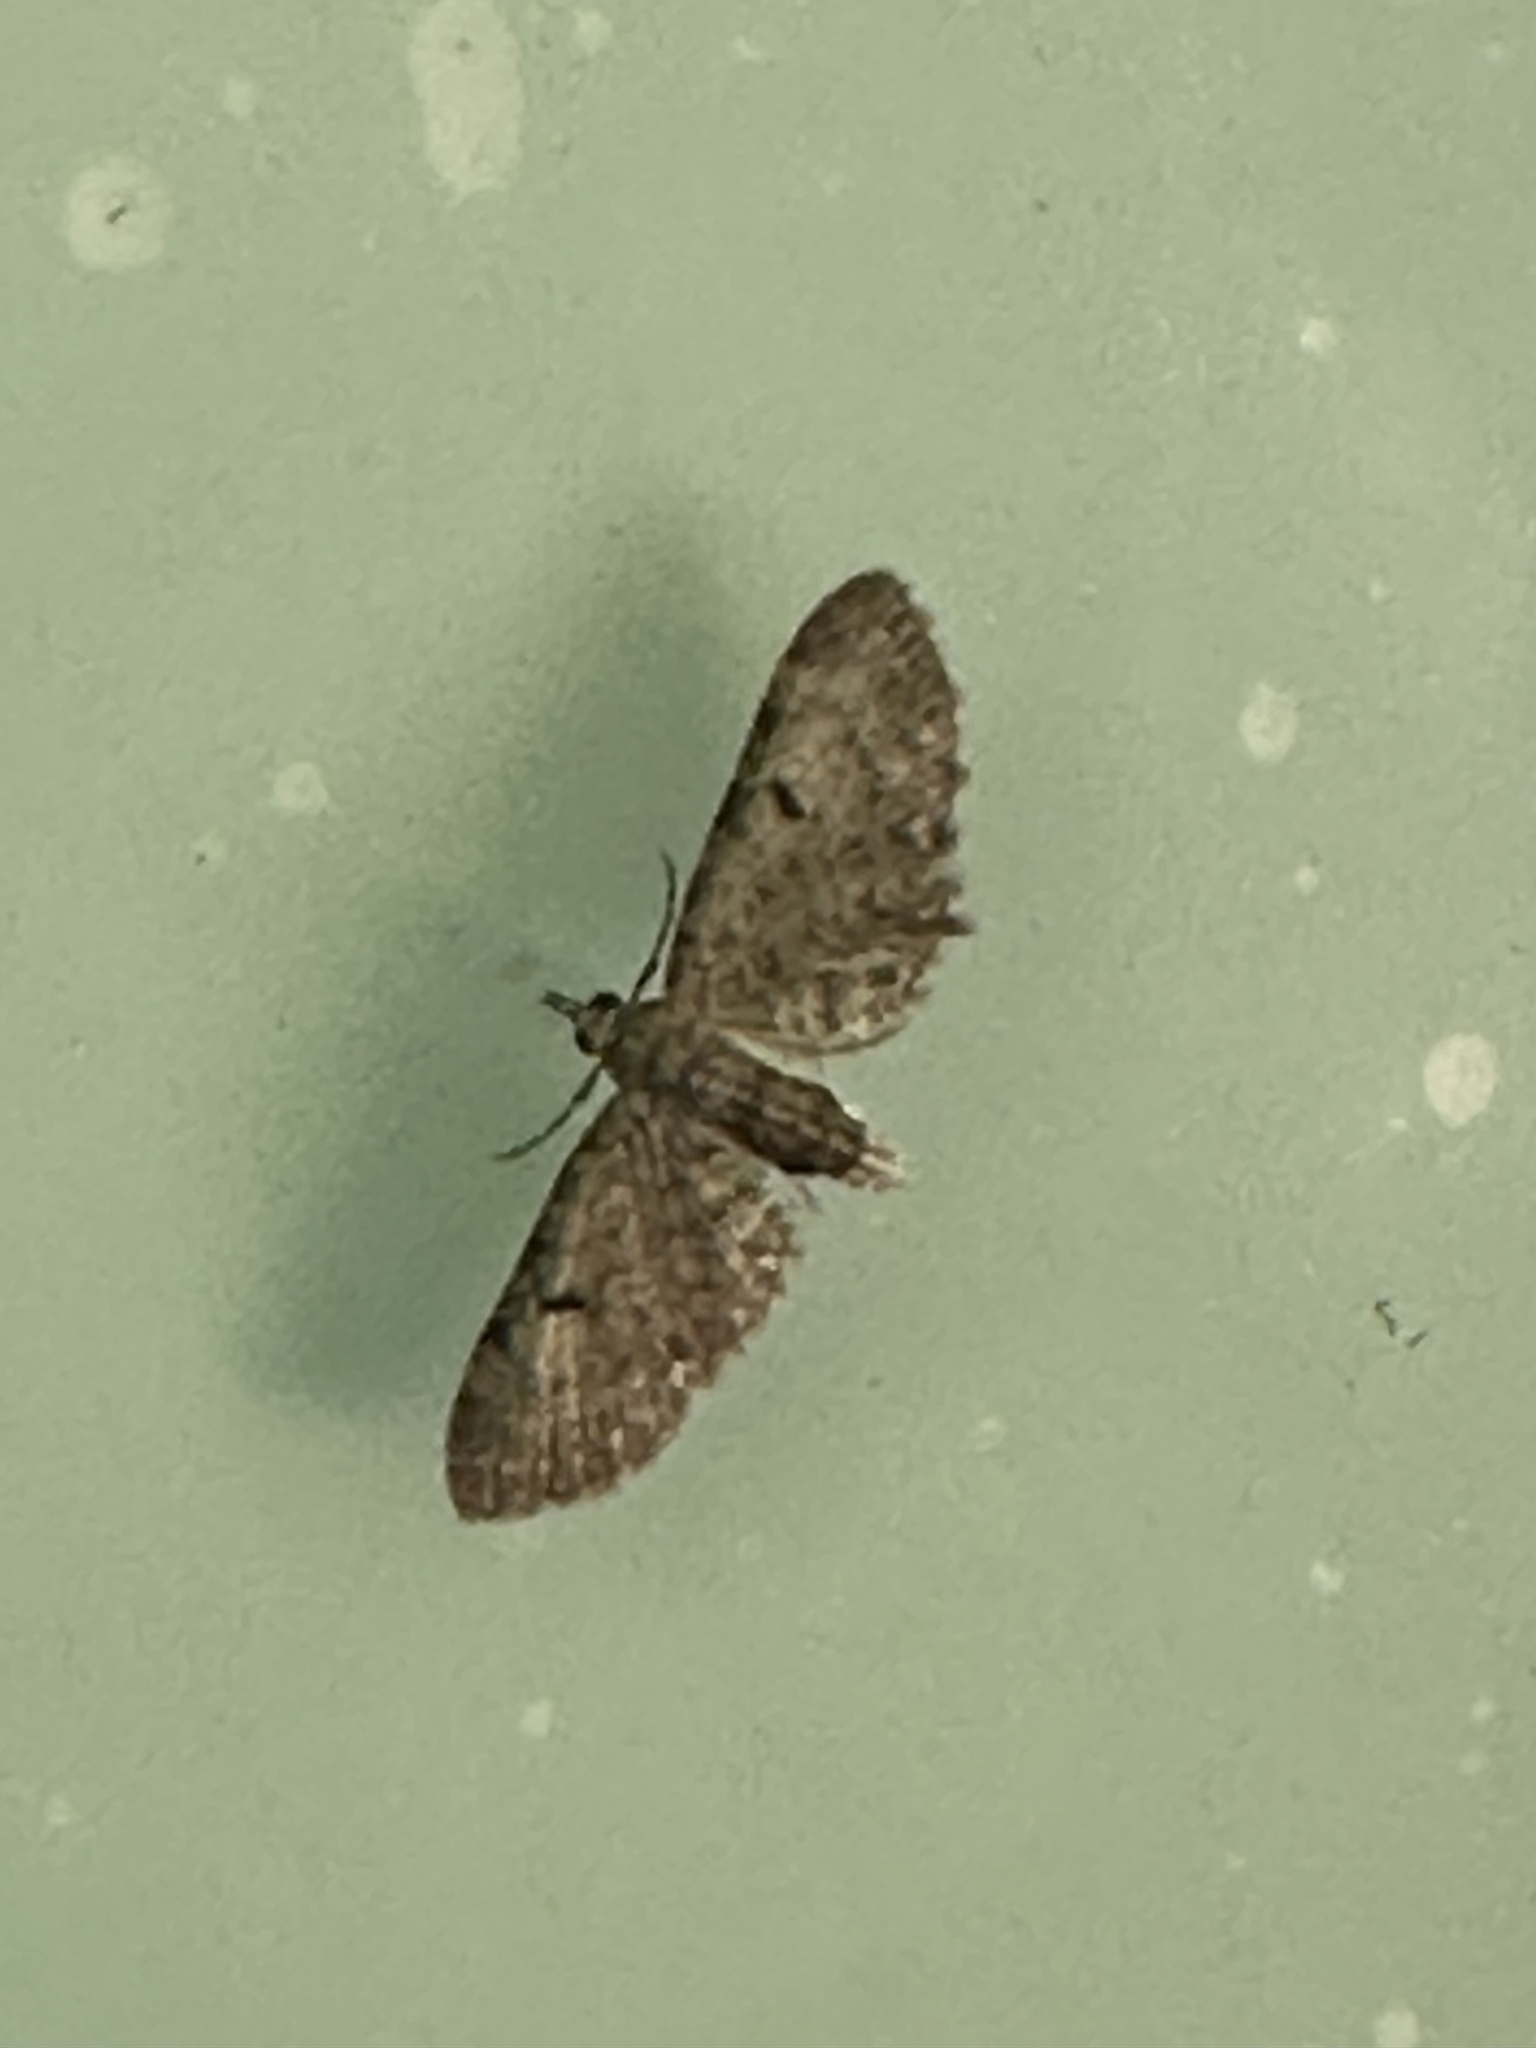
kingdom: Animalia
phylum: Arthropoda
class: Insecta
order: Lepidoptera
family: Geometridae
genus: Eupithecia
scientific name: Eupithecia miserulata
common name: Common eupithecia
